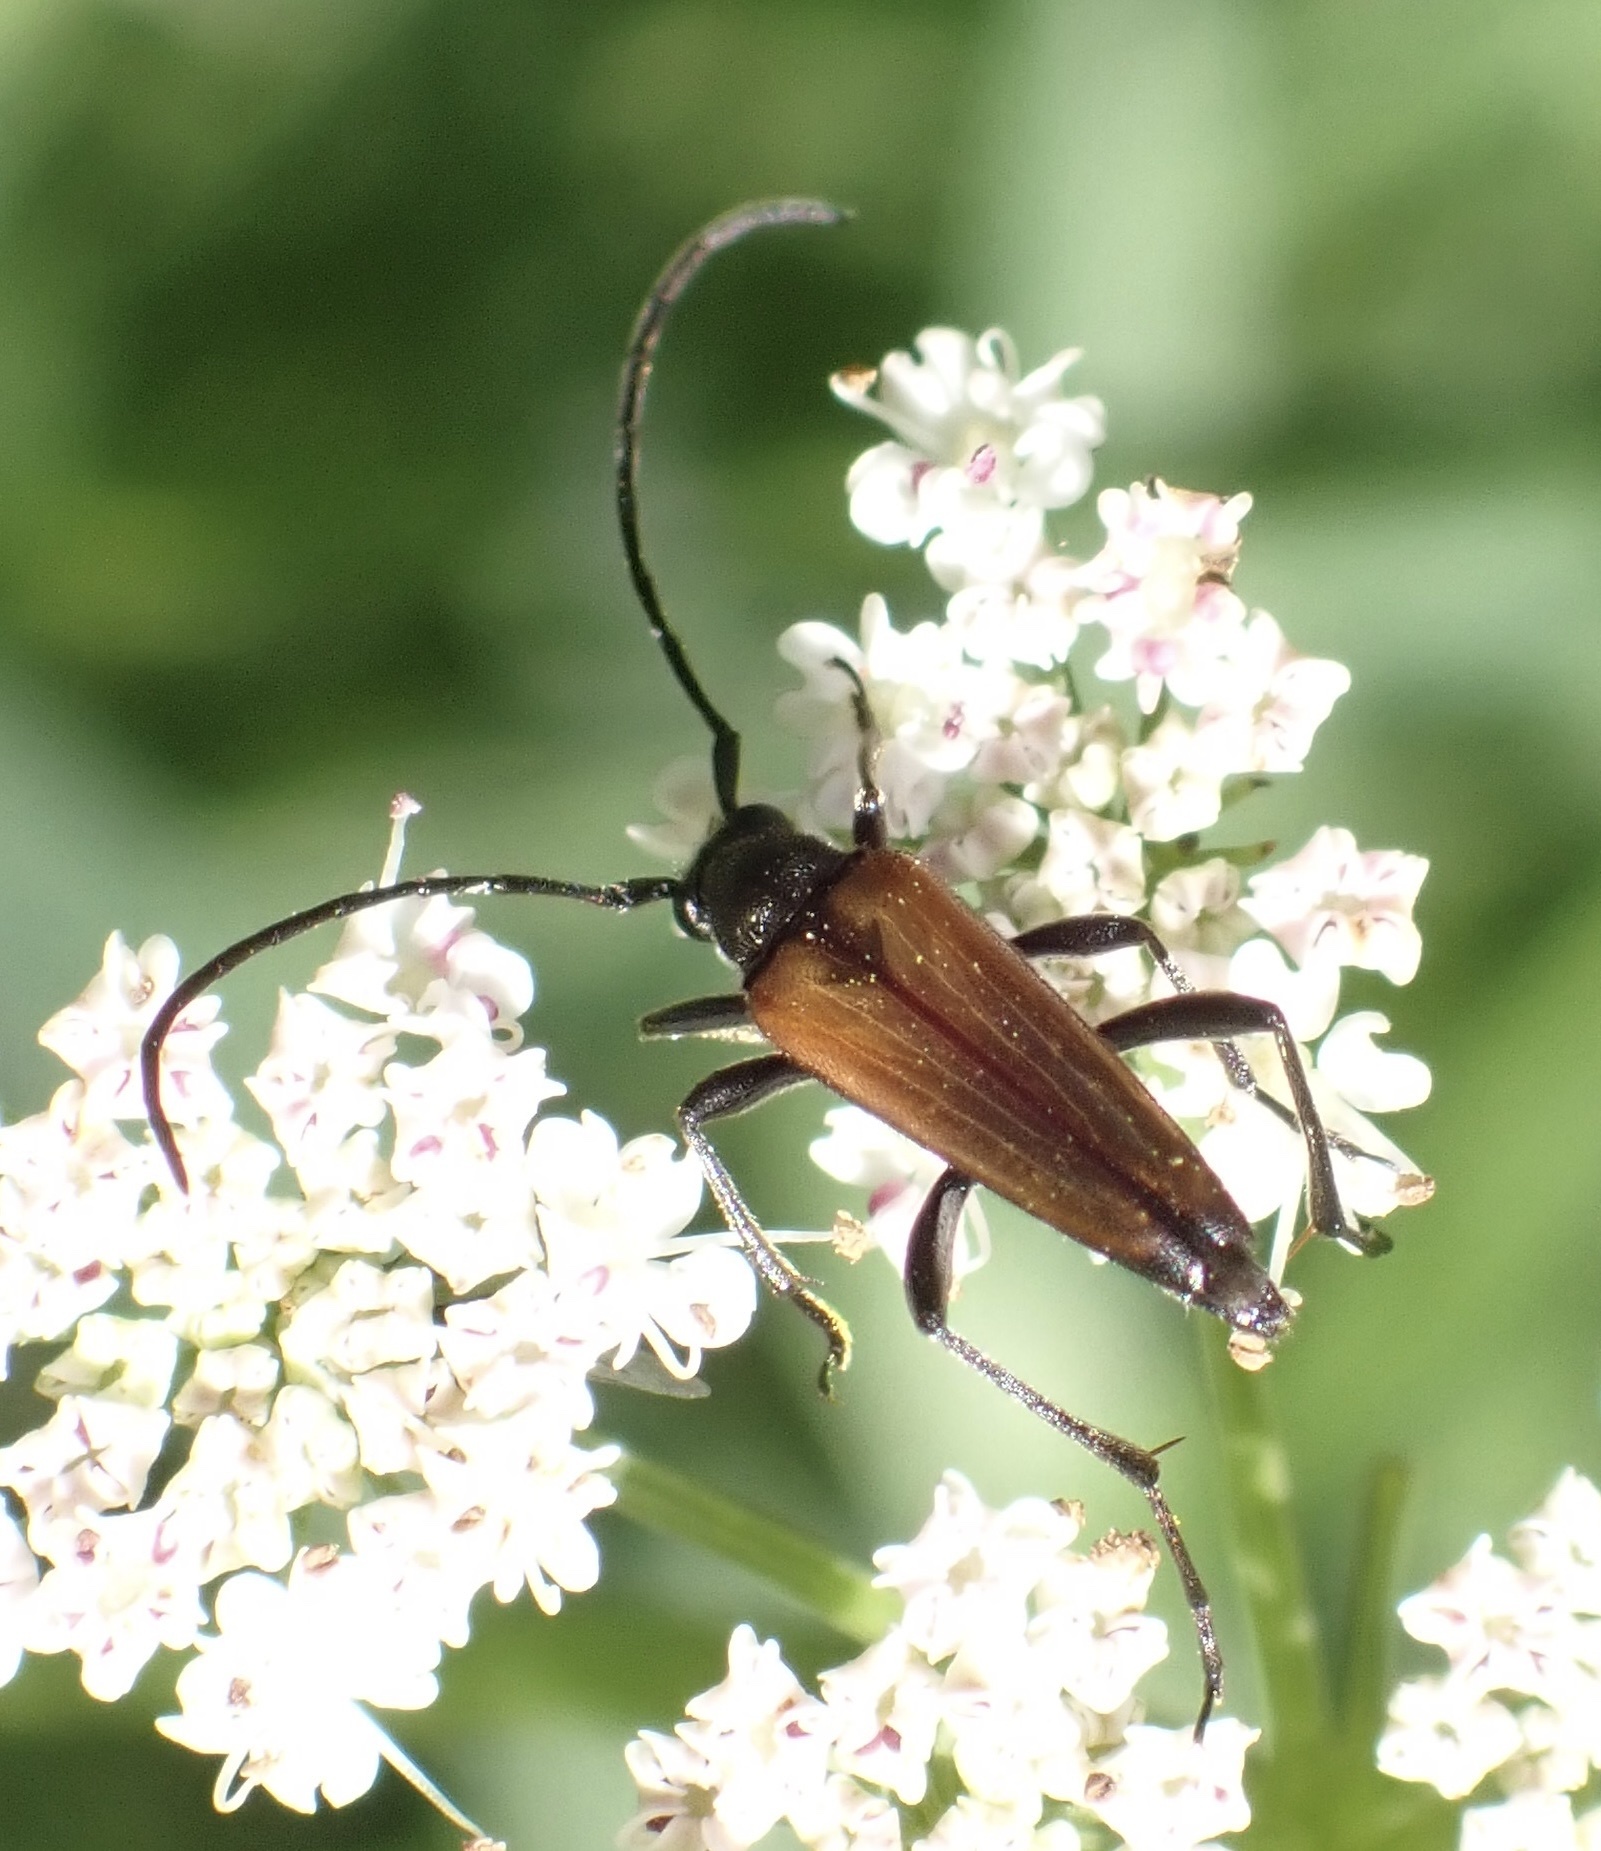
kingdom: Animalia
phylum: Arthropoda
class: Insecta
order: Coleoptera
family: Cerambycidae
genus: Stenurella
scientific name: Stenurella melanura
